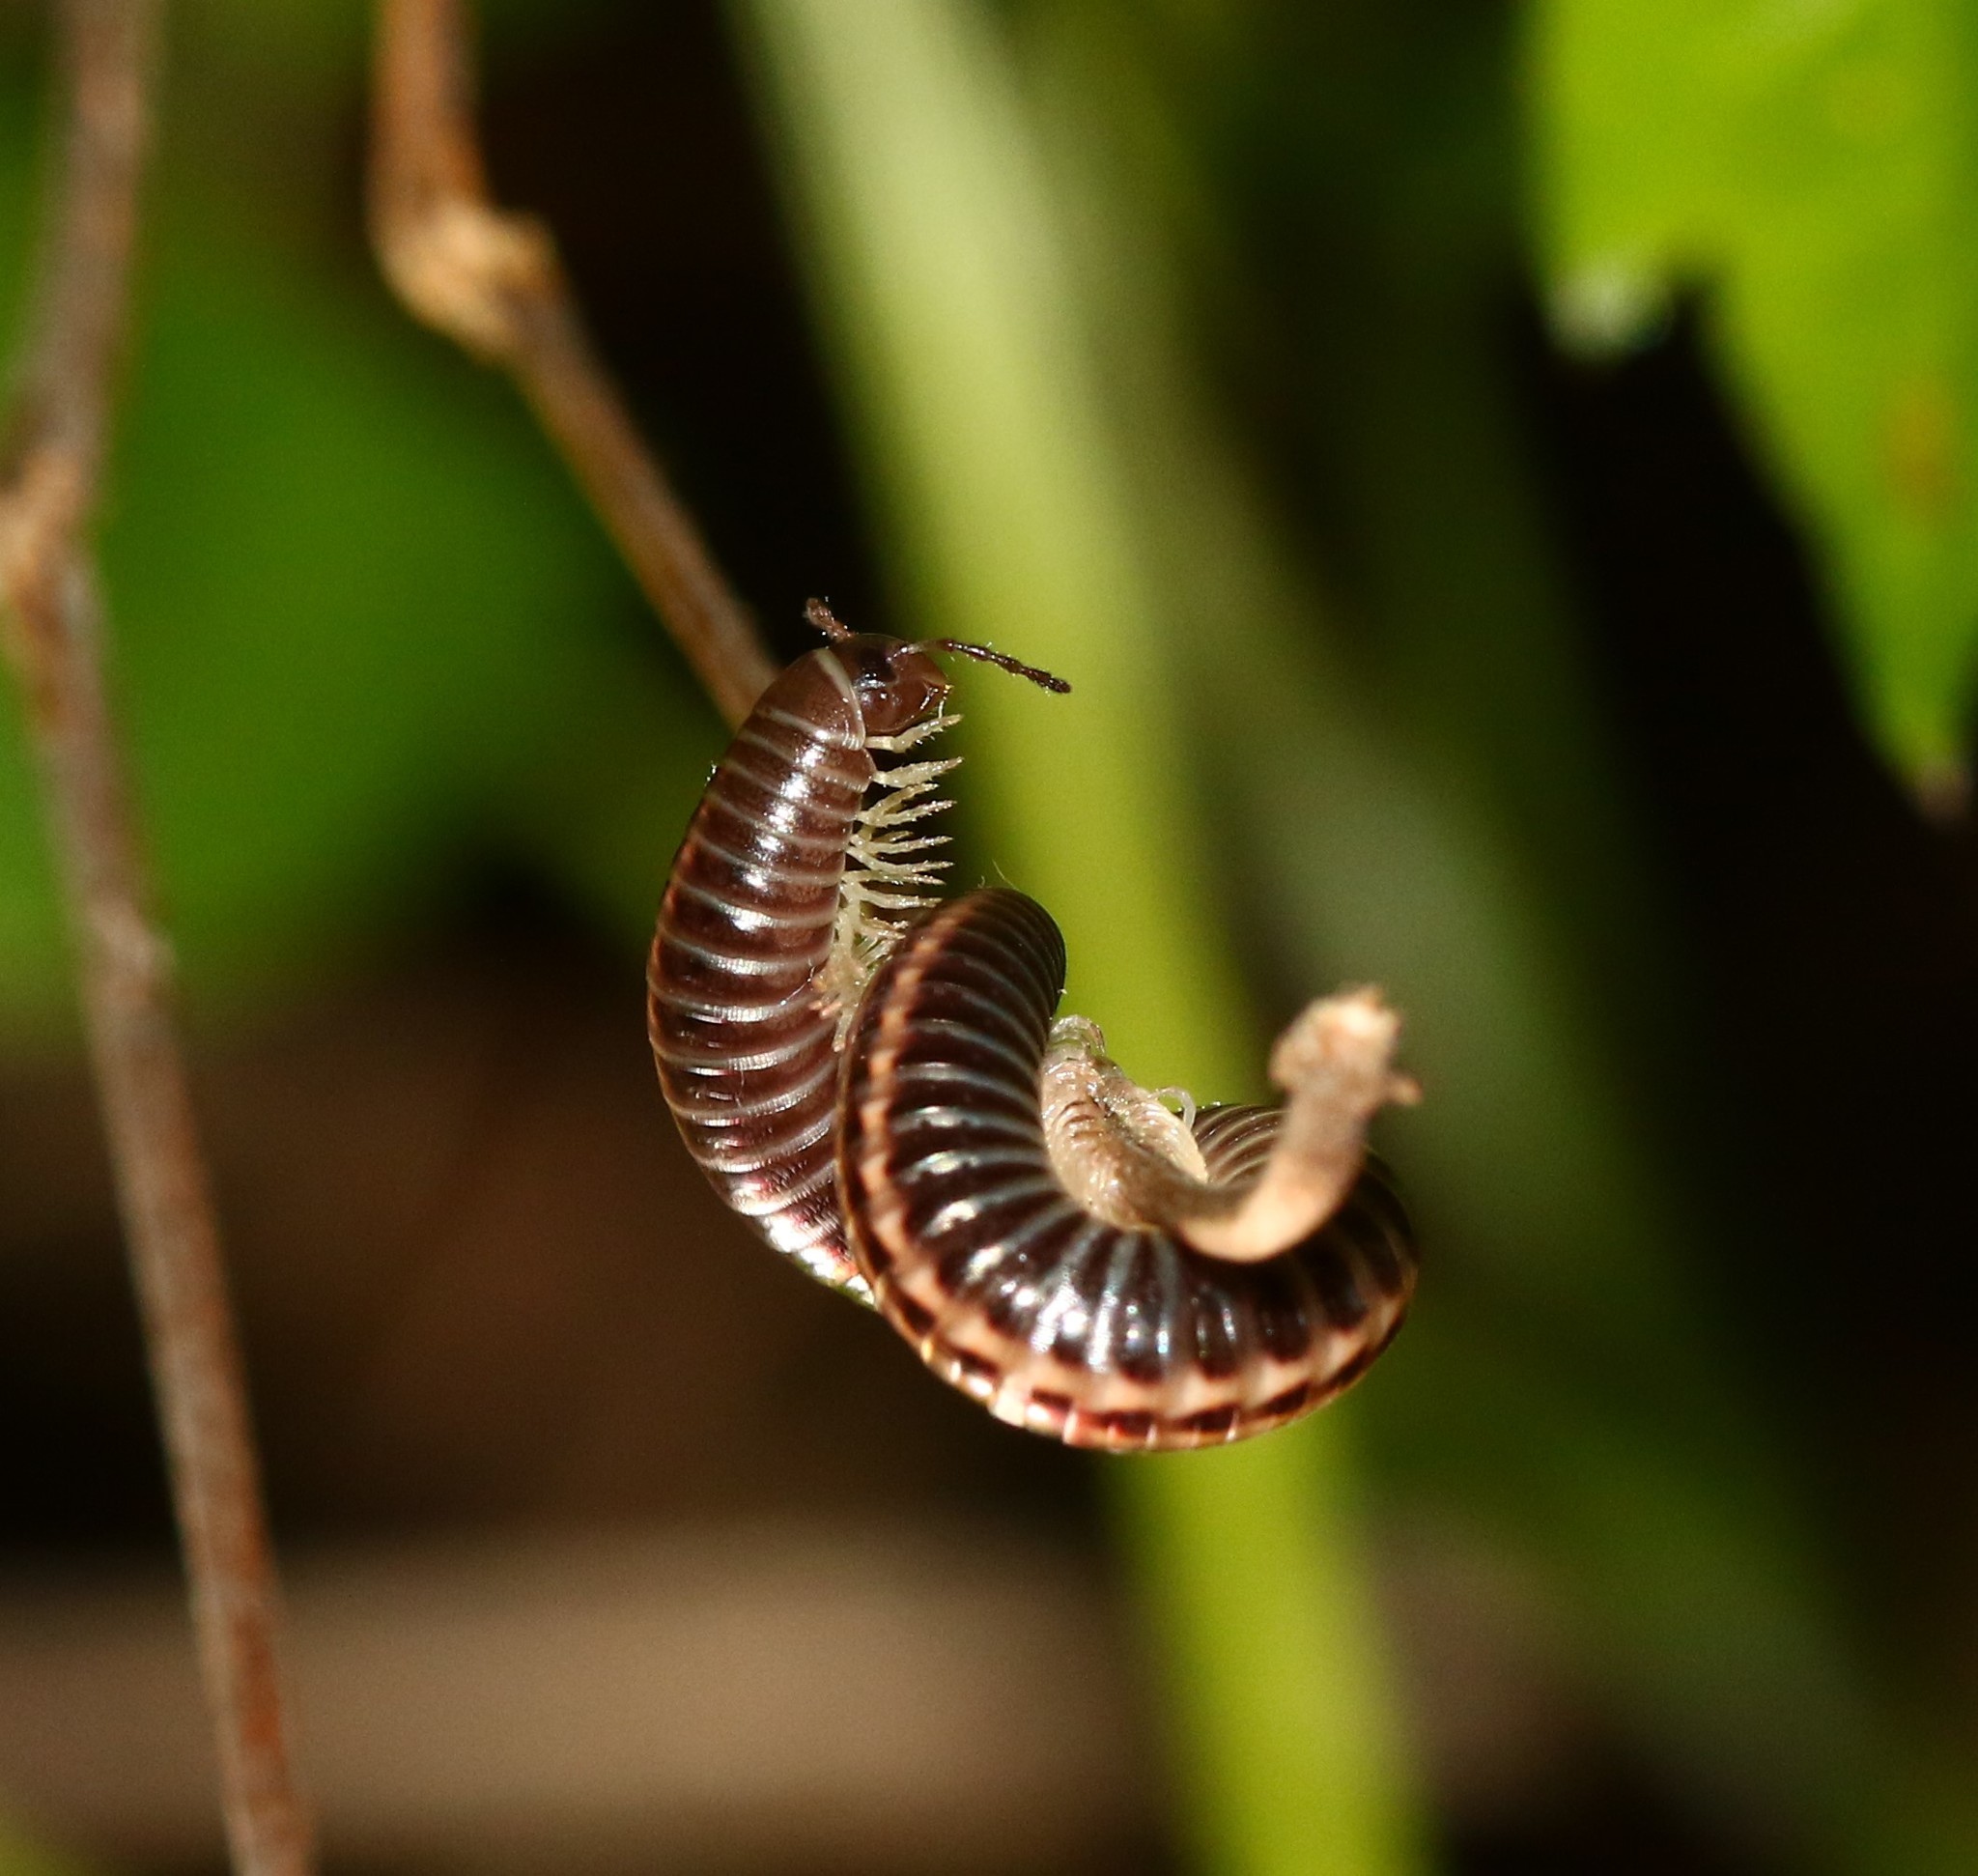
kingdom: Animalia
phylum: Arthropoda
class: Diplopoda
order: Julida
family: Julidae
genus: Ommatoiulus
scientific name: Ommatoiulus sabulosus
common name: Striped millipede
